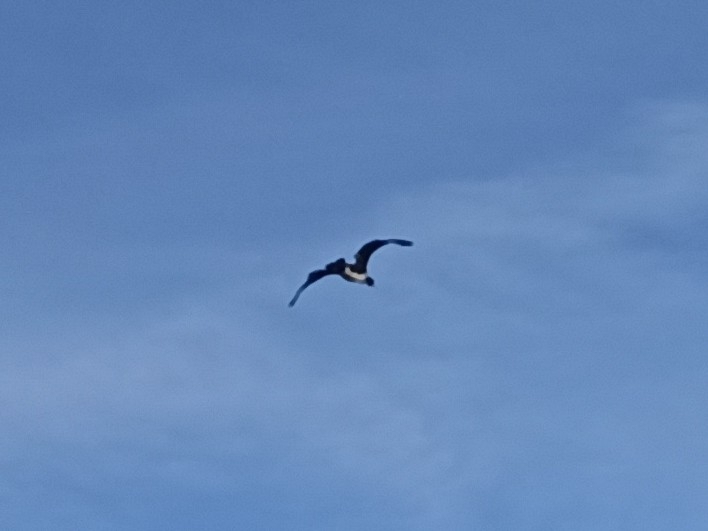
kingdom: Animalia
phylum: Chordata
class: Aves
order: Suliformes
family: Phalacrocoracidae
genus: Phalacrocorax
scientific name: Phalacrocorax carbo
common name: Great cormorant
